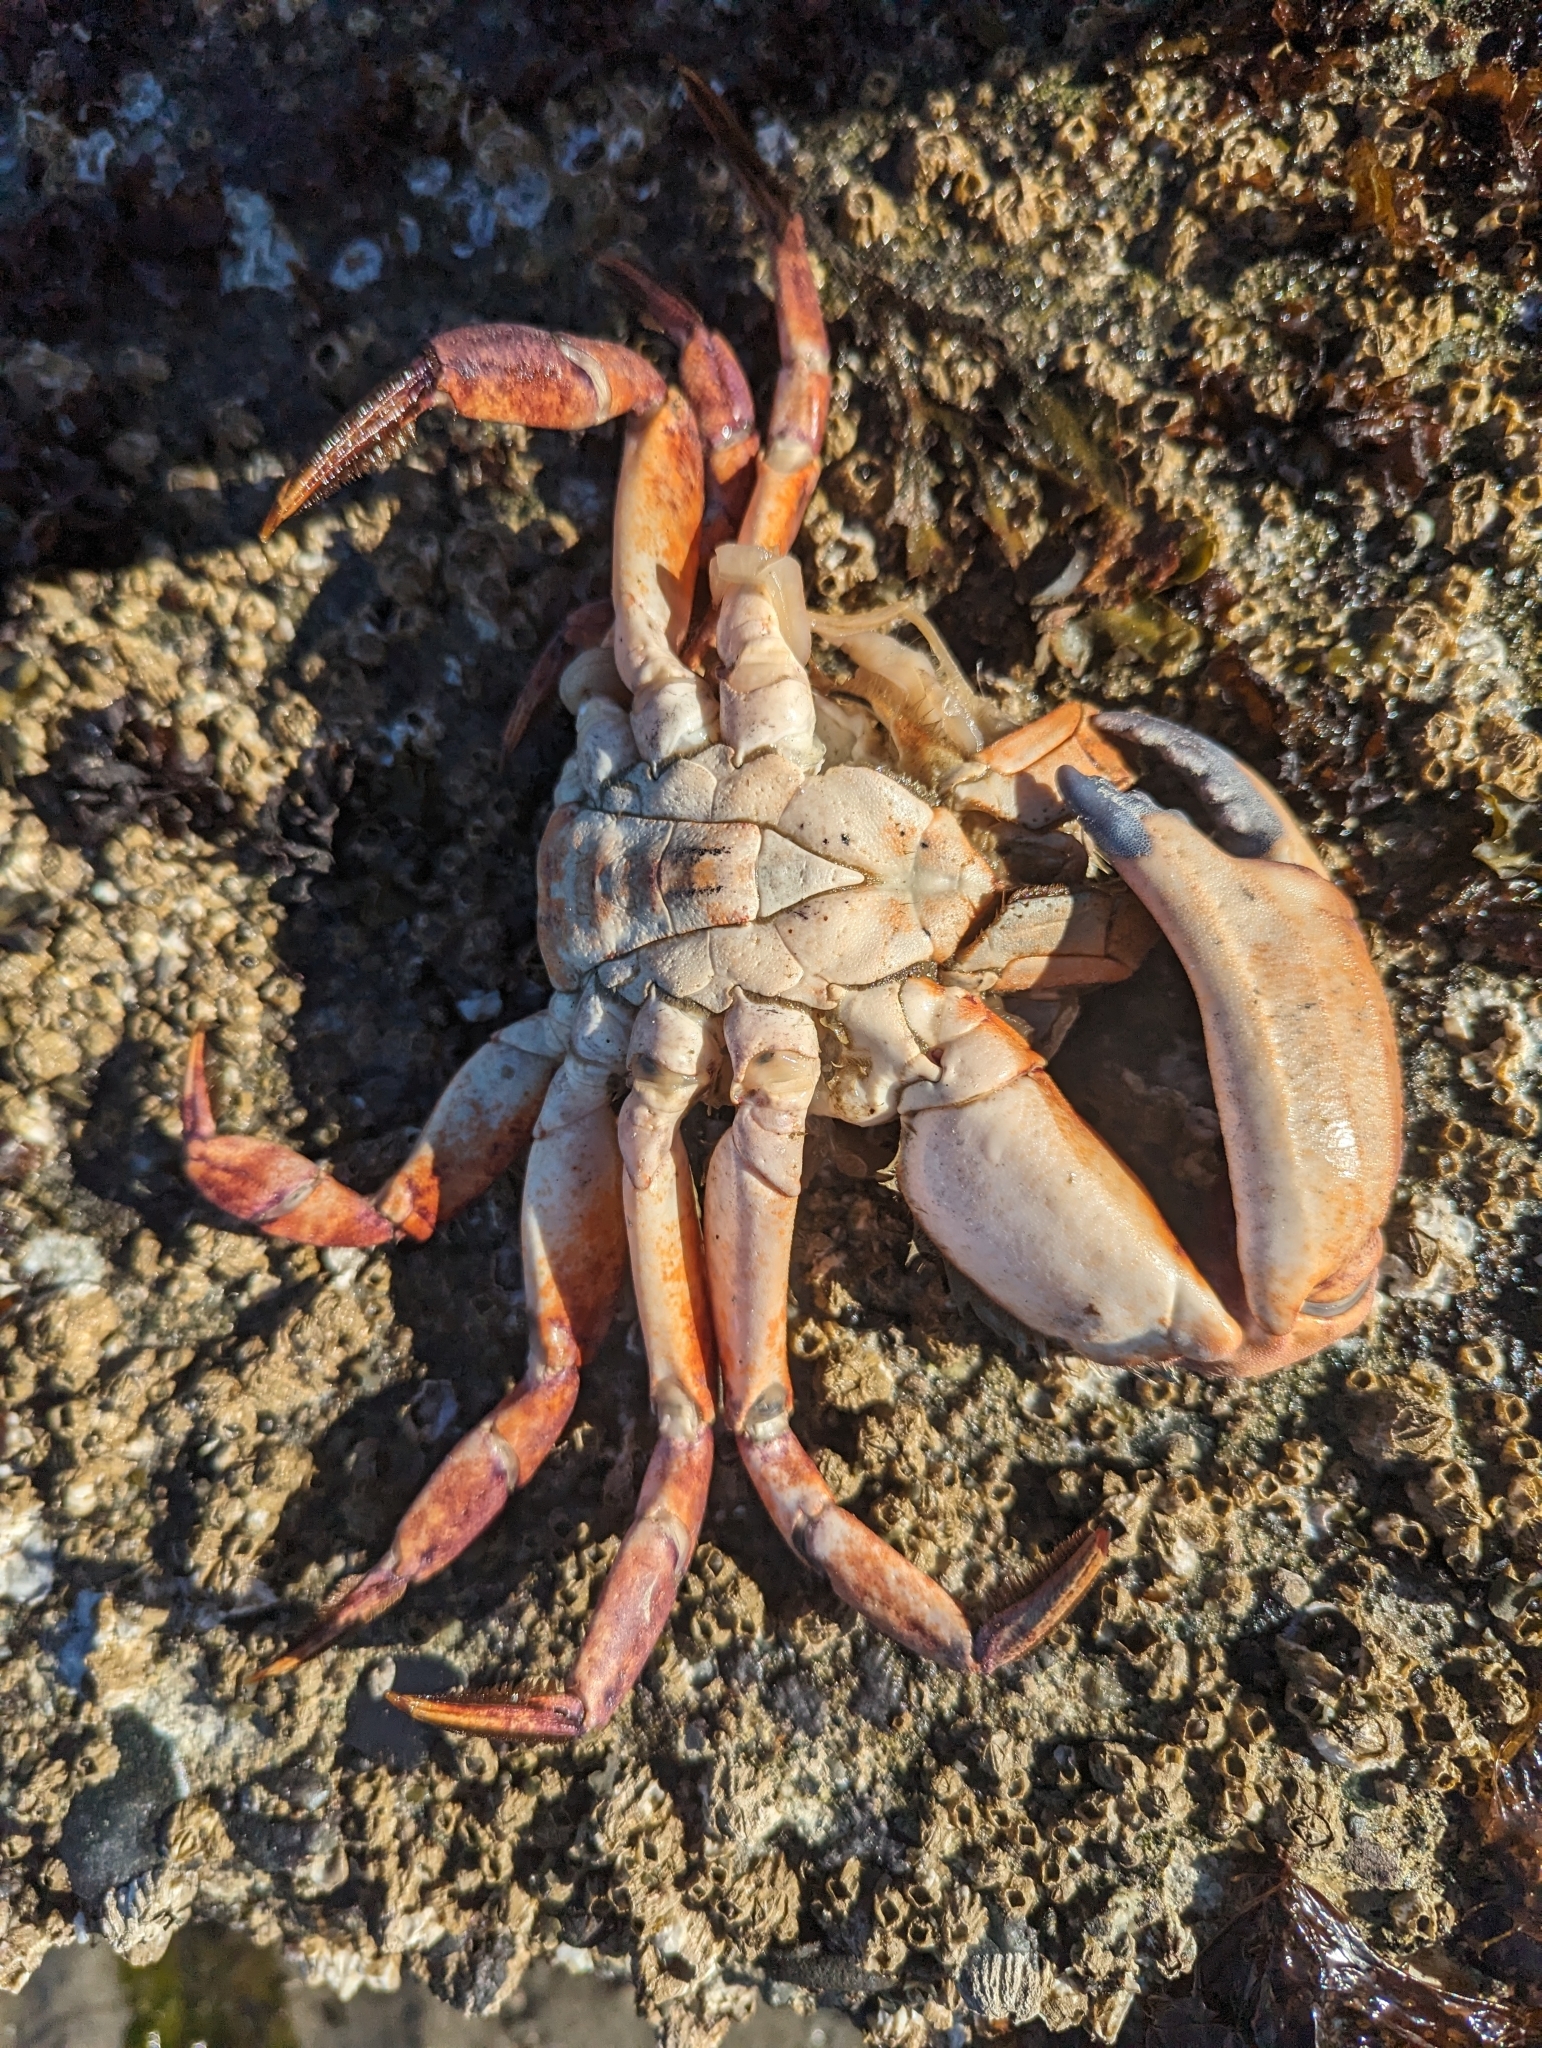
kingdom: Animalia
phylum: Arthropoda
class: Malacostraca
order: Decapoda
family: Cancridae
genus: Cancer
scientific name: Cancer productus
